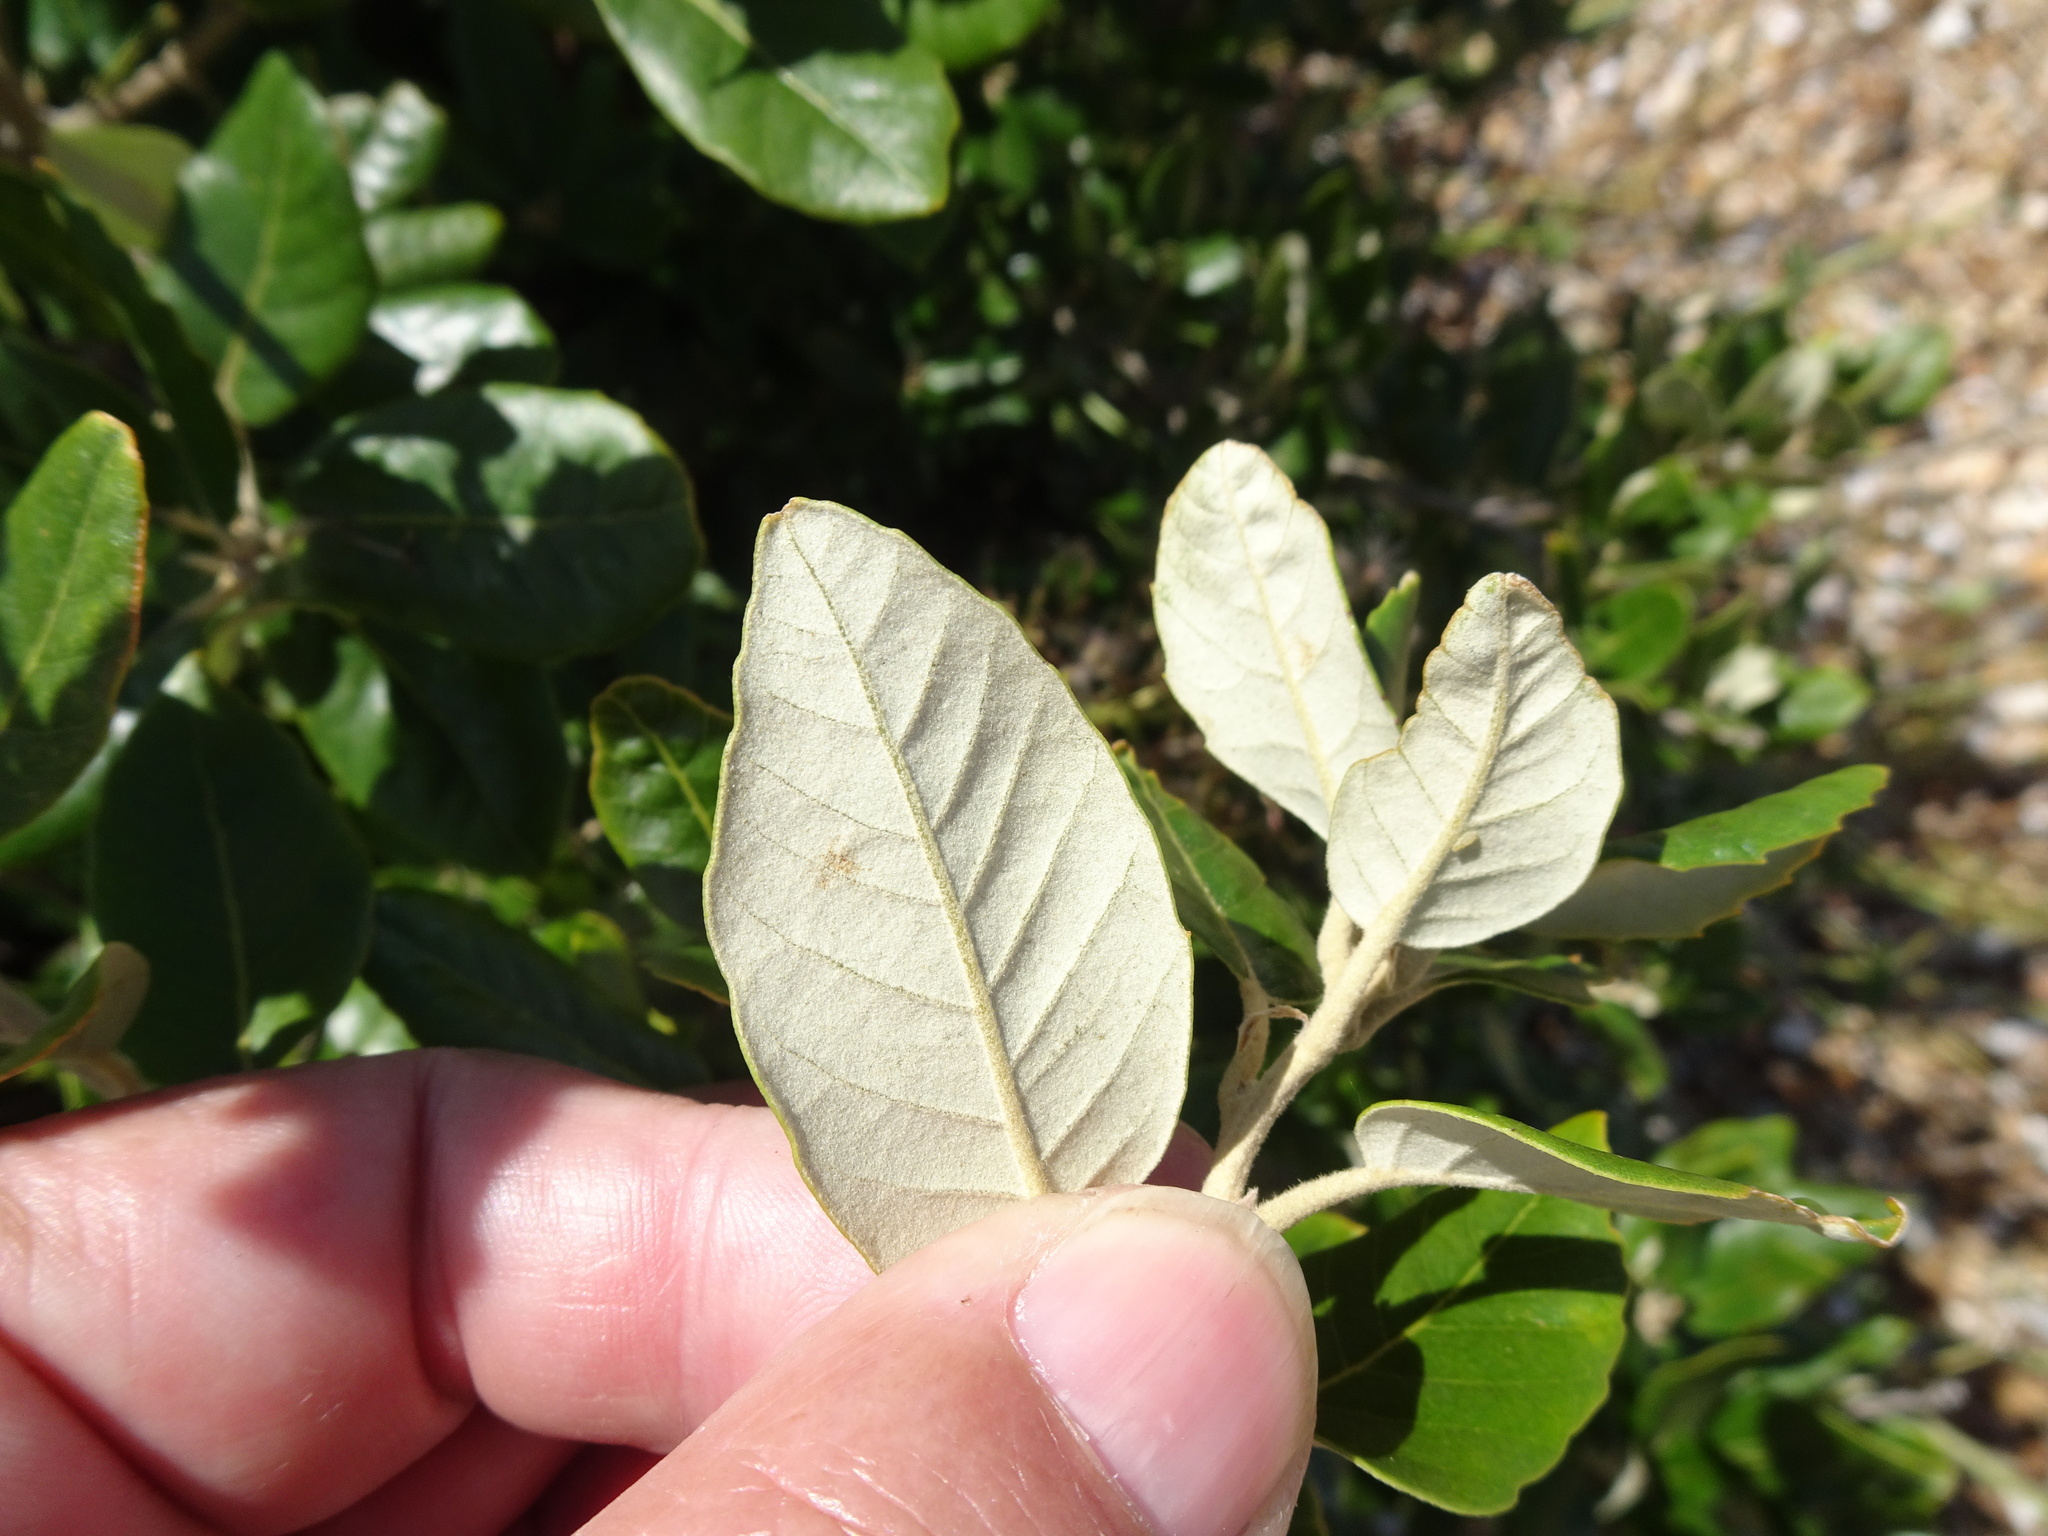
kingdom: Plantae
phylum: Tracheophyta
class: Magnoliopsida
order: Fagales
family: Fagaceae
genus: Quercus
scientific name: Quercus ilex
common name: Evergreen oak
